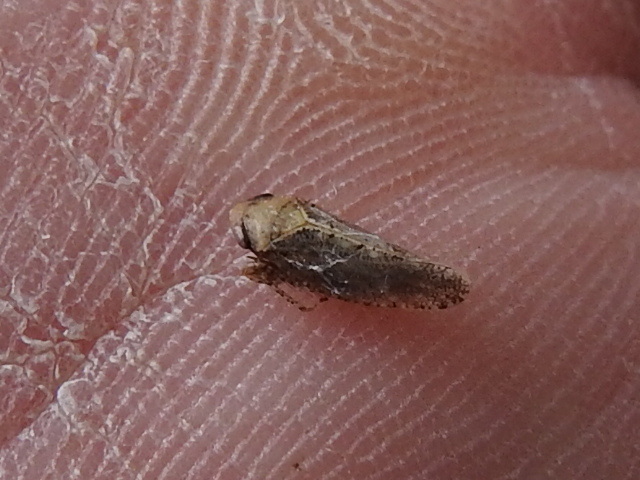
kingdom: Animalia
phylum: Arthropoda
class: Insecta
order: Hemiptera
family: Cicadellidae
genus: Excultanus
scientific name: Excultanus excultus
